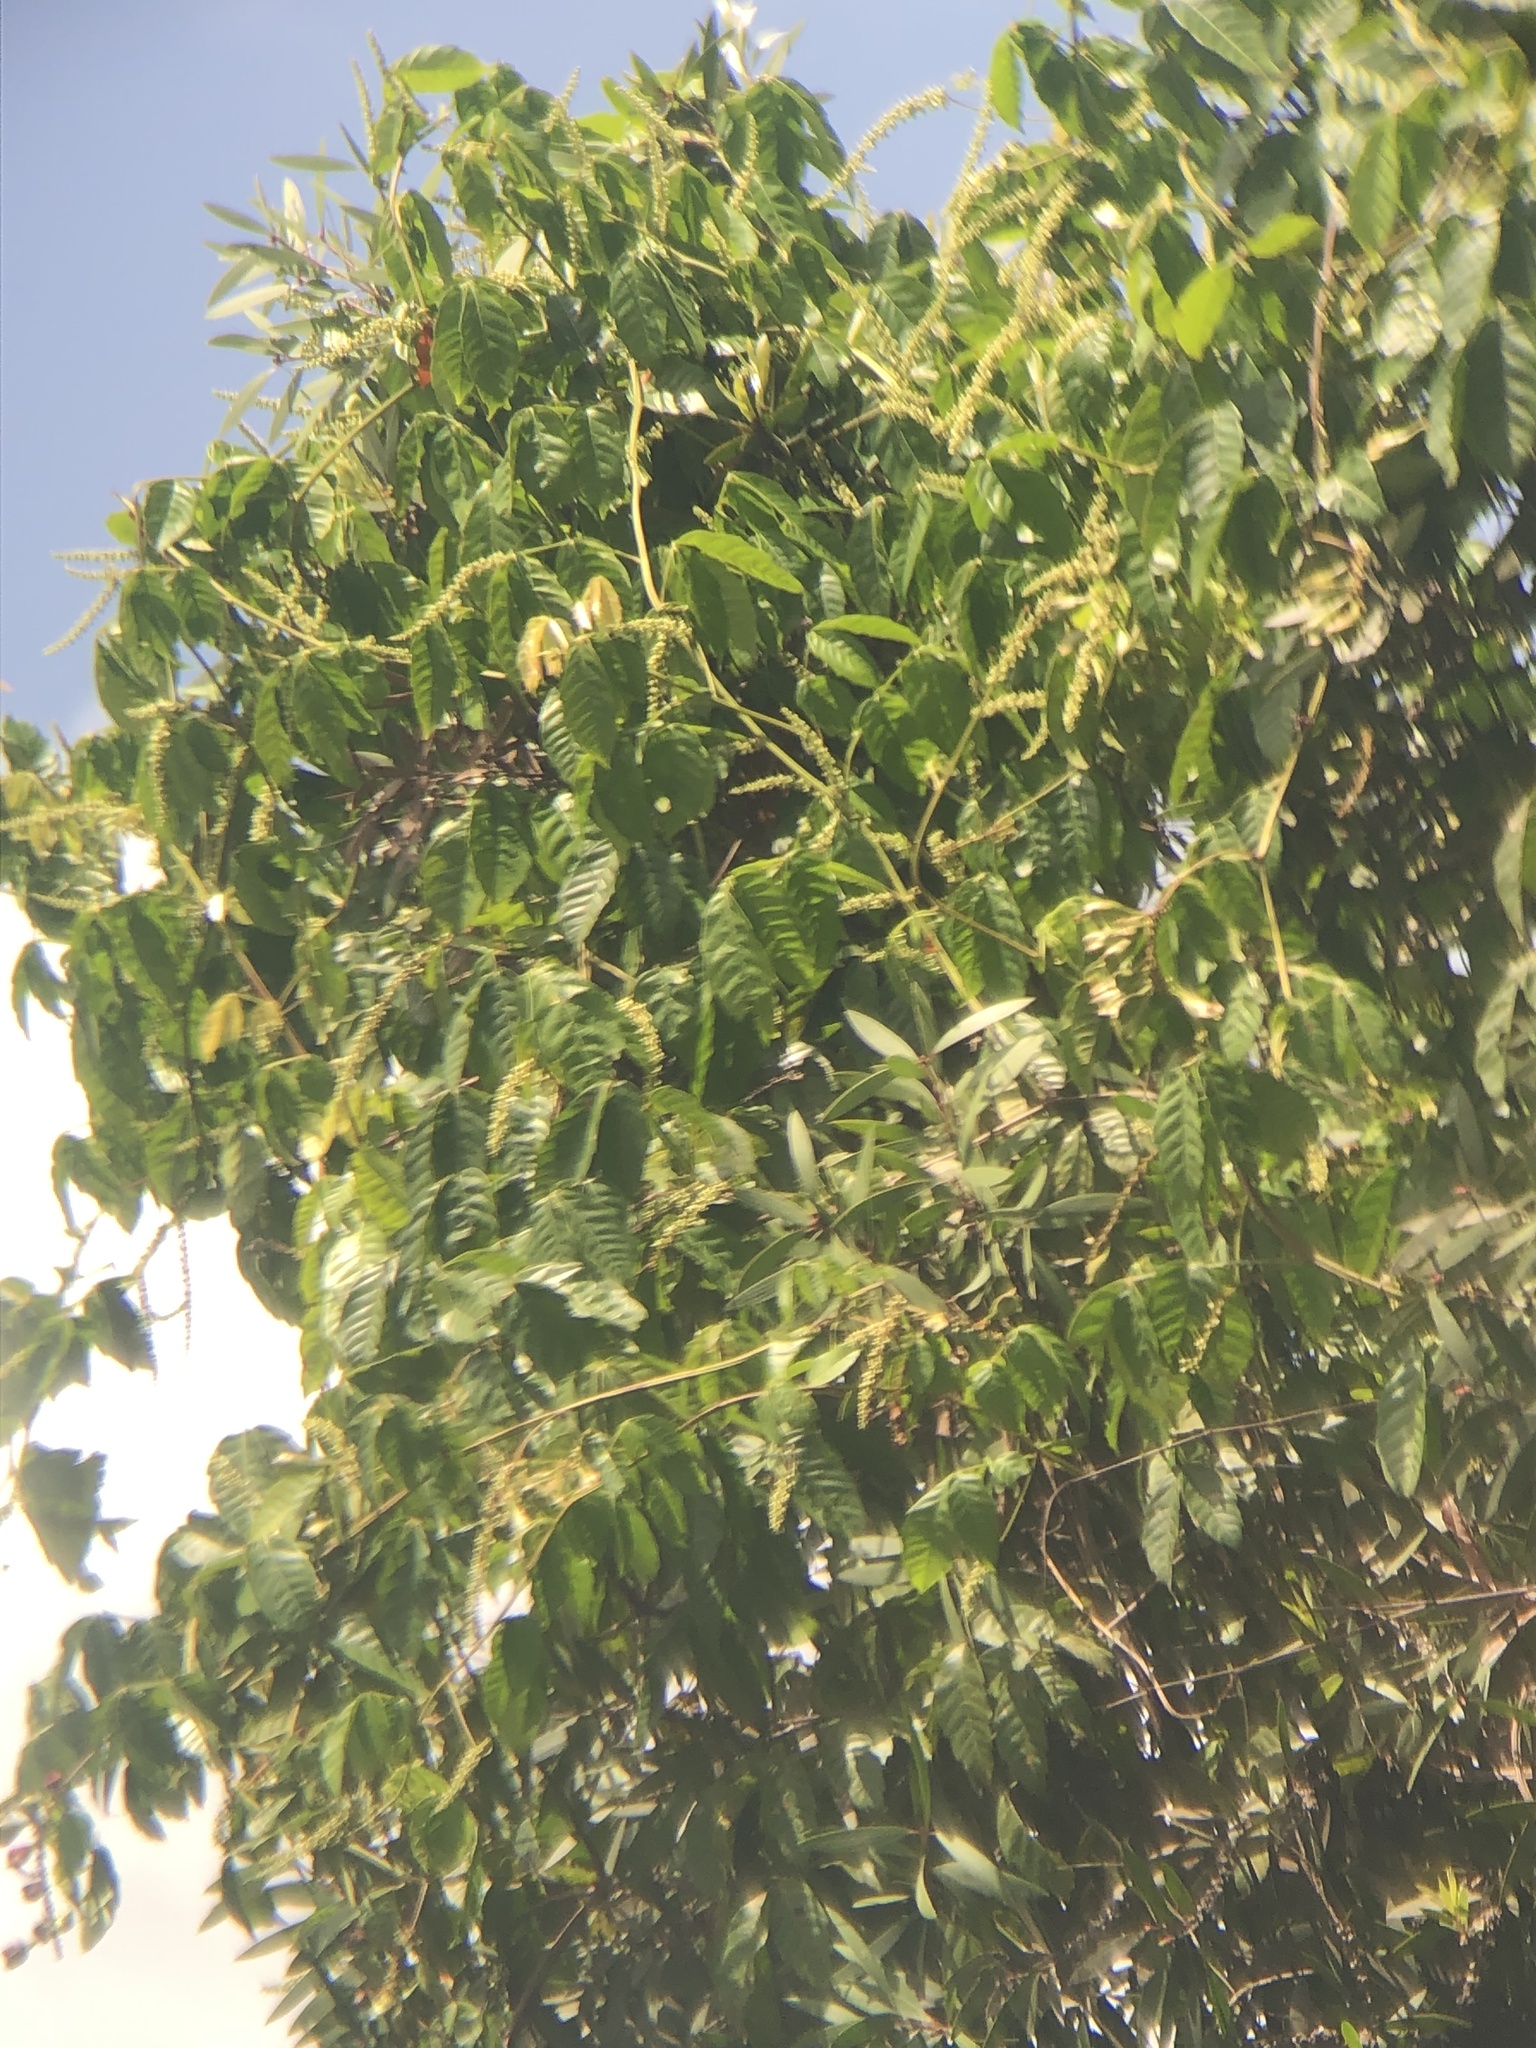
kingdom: Plantae
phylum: Tracheophyta
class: Magnoliopsida
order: Sapindales
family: Sapindaceae
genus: Paullinia
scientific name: Paullinia pinnata
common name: Barbasco
